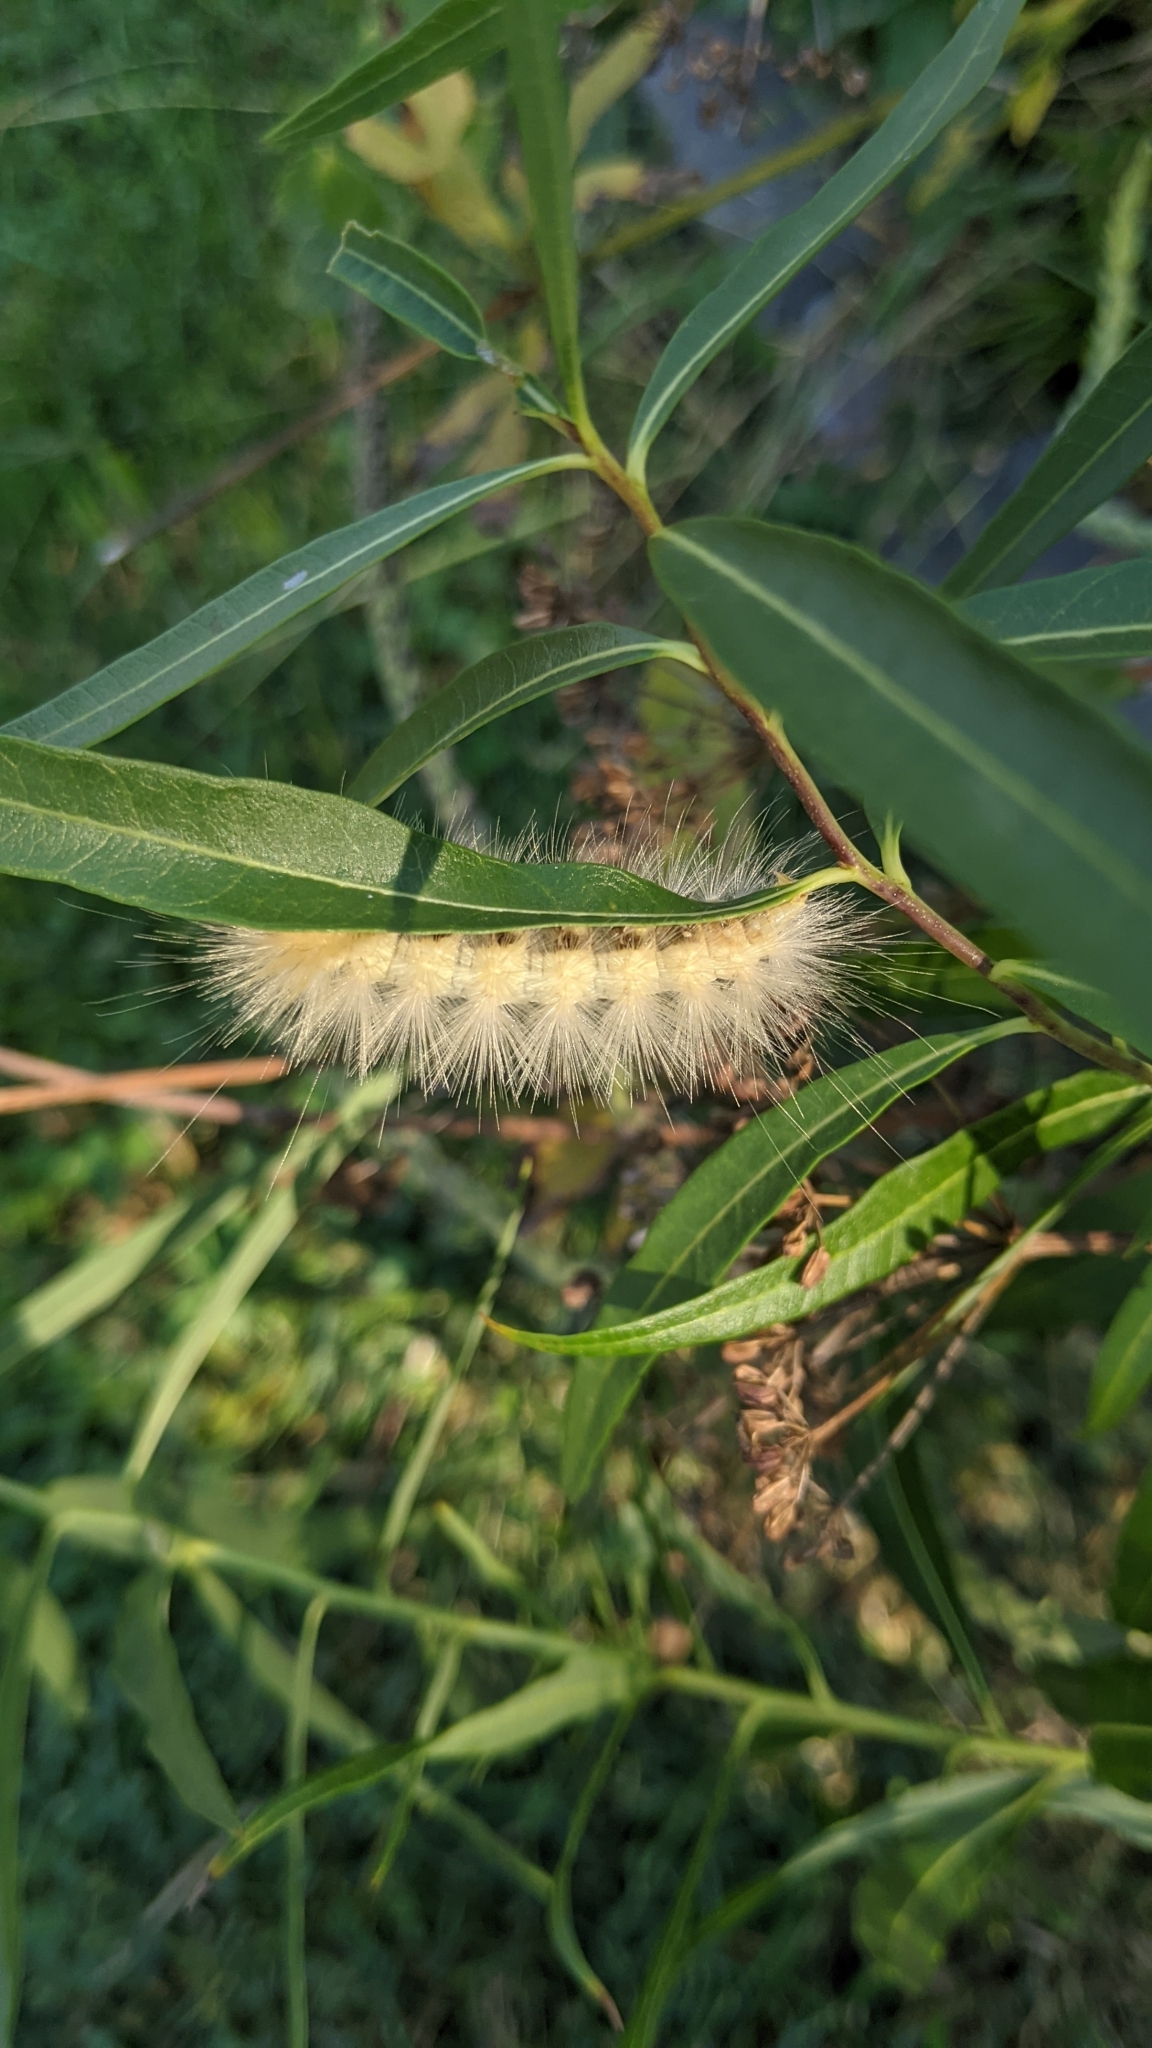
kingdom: Animalia
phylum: Arthropoda
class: Insecta
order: Lepidoptera
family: Erebidae
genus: Spilosoma
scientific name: Spilosoma virginica
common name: Virginia tiger moth
